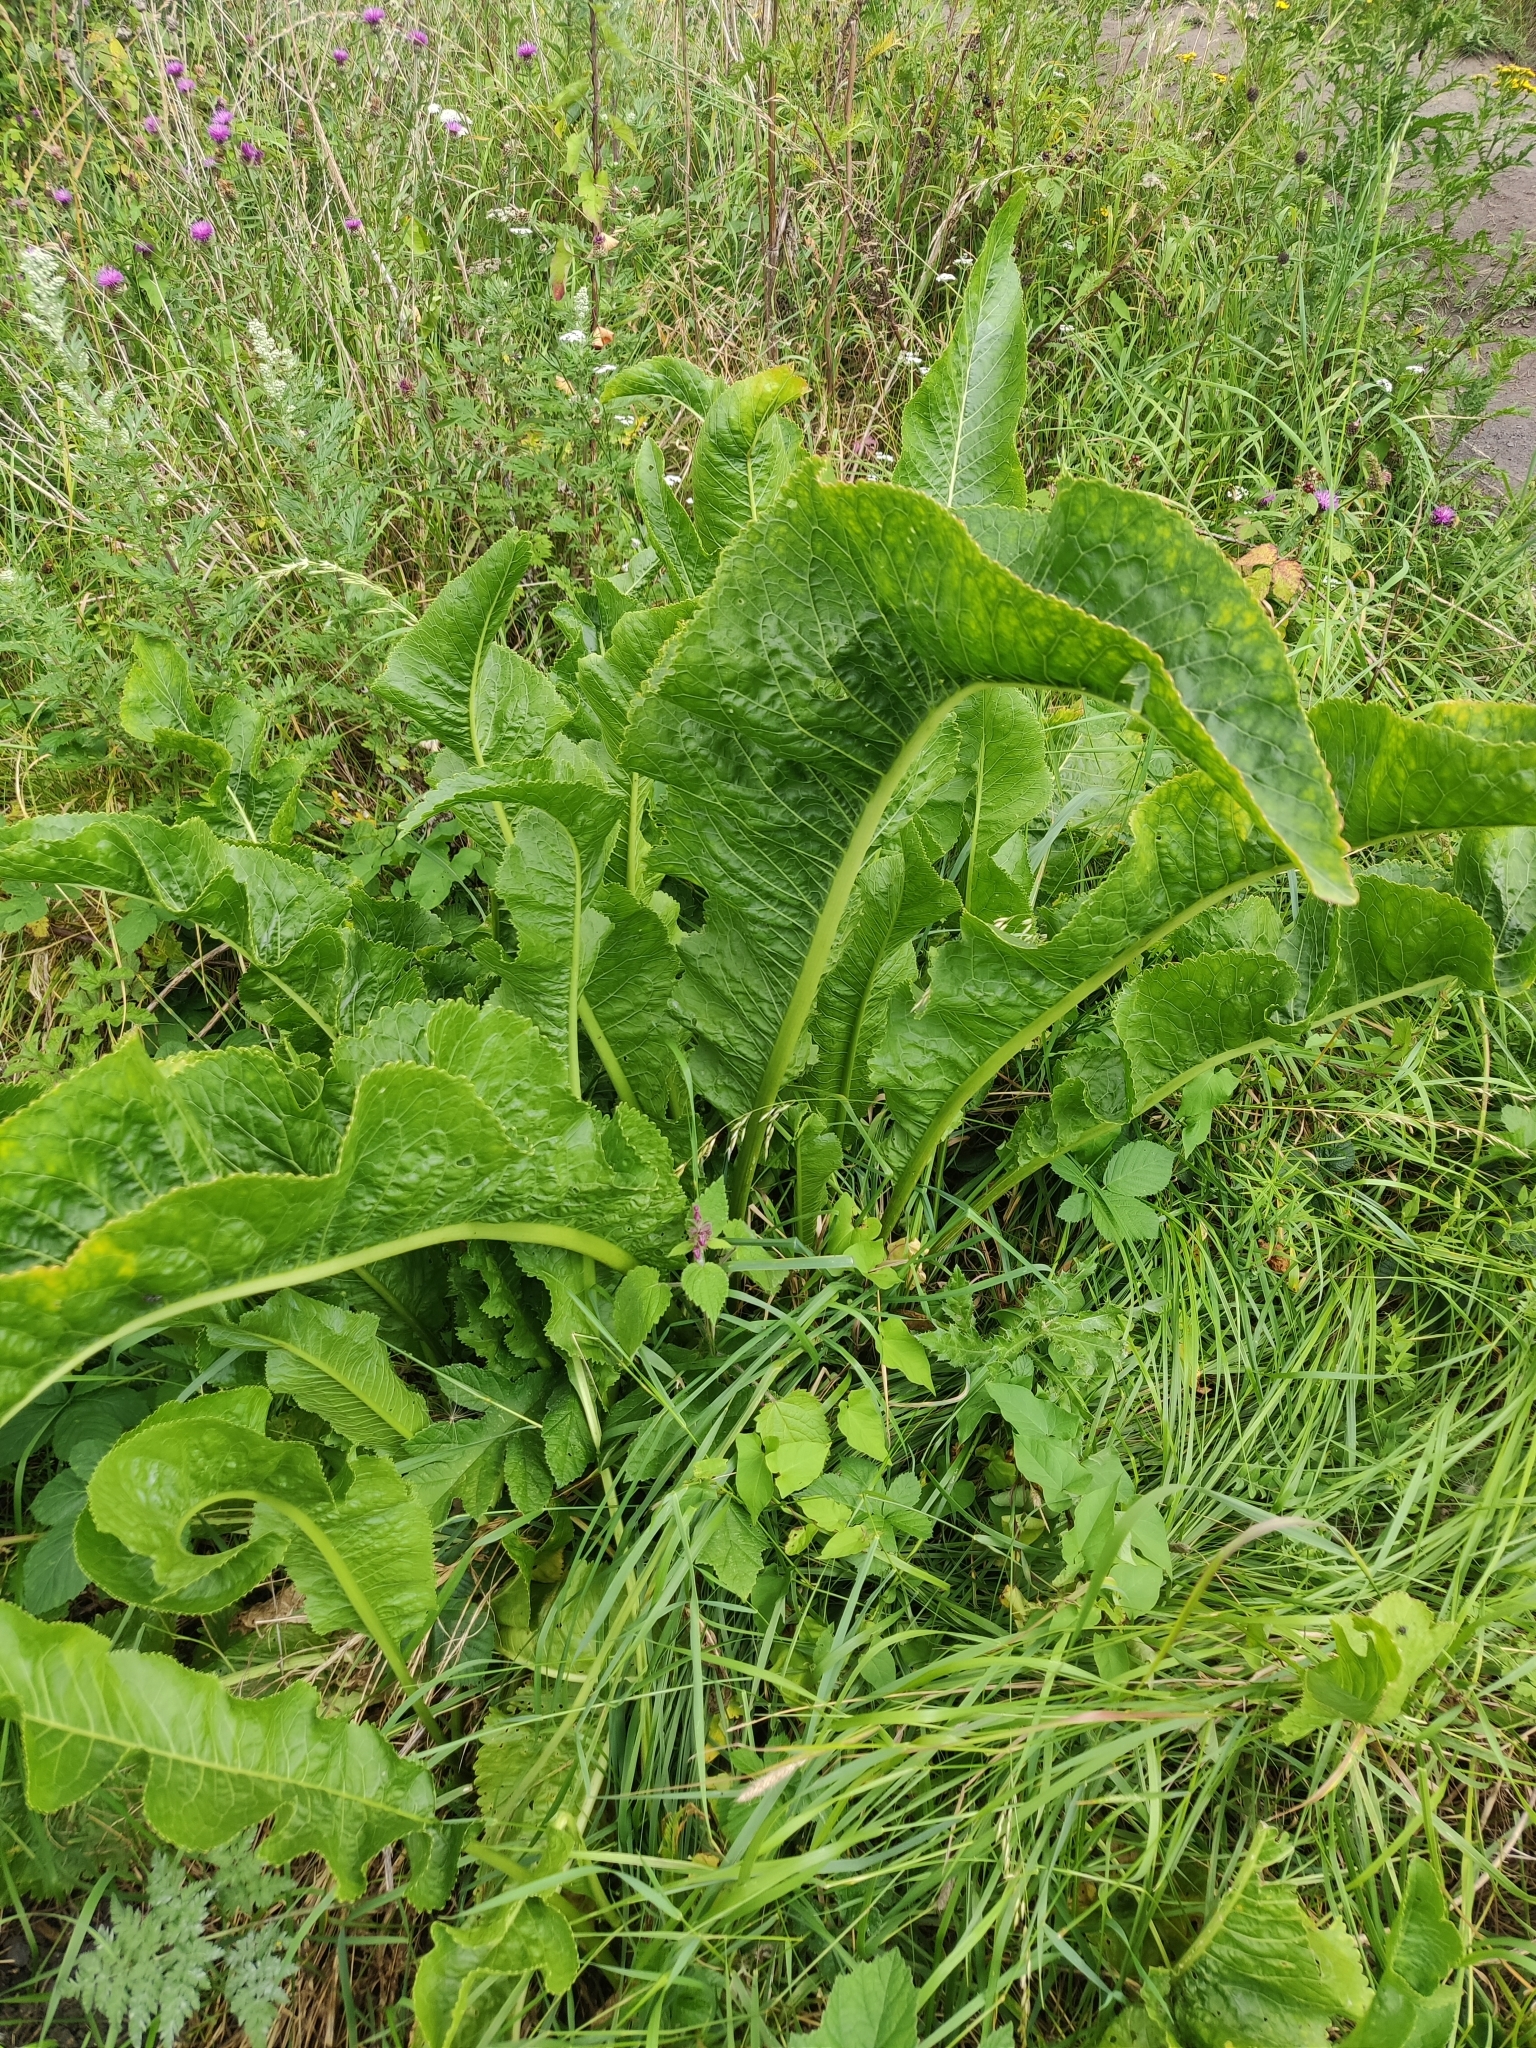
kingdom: Plantae
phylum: Tracheophyta
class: Magnoliopsida
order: Brassicales
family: Brassicaceae
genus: Armoracia
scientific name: Armoracia rusticana
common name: Horseradish
